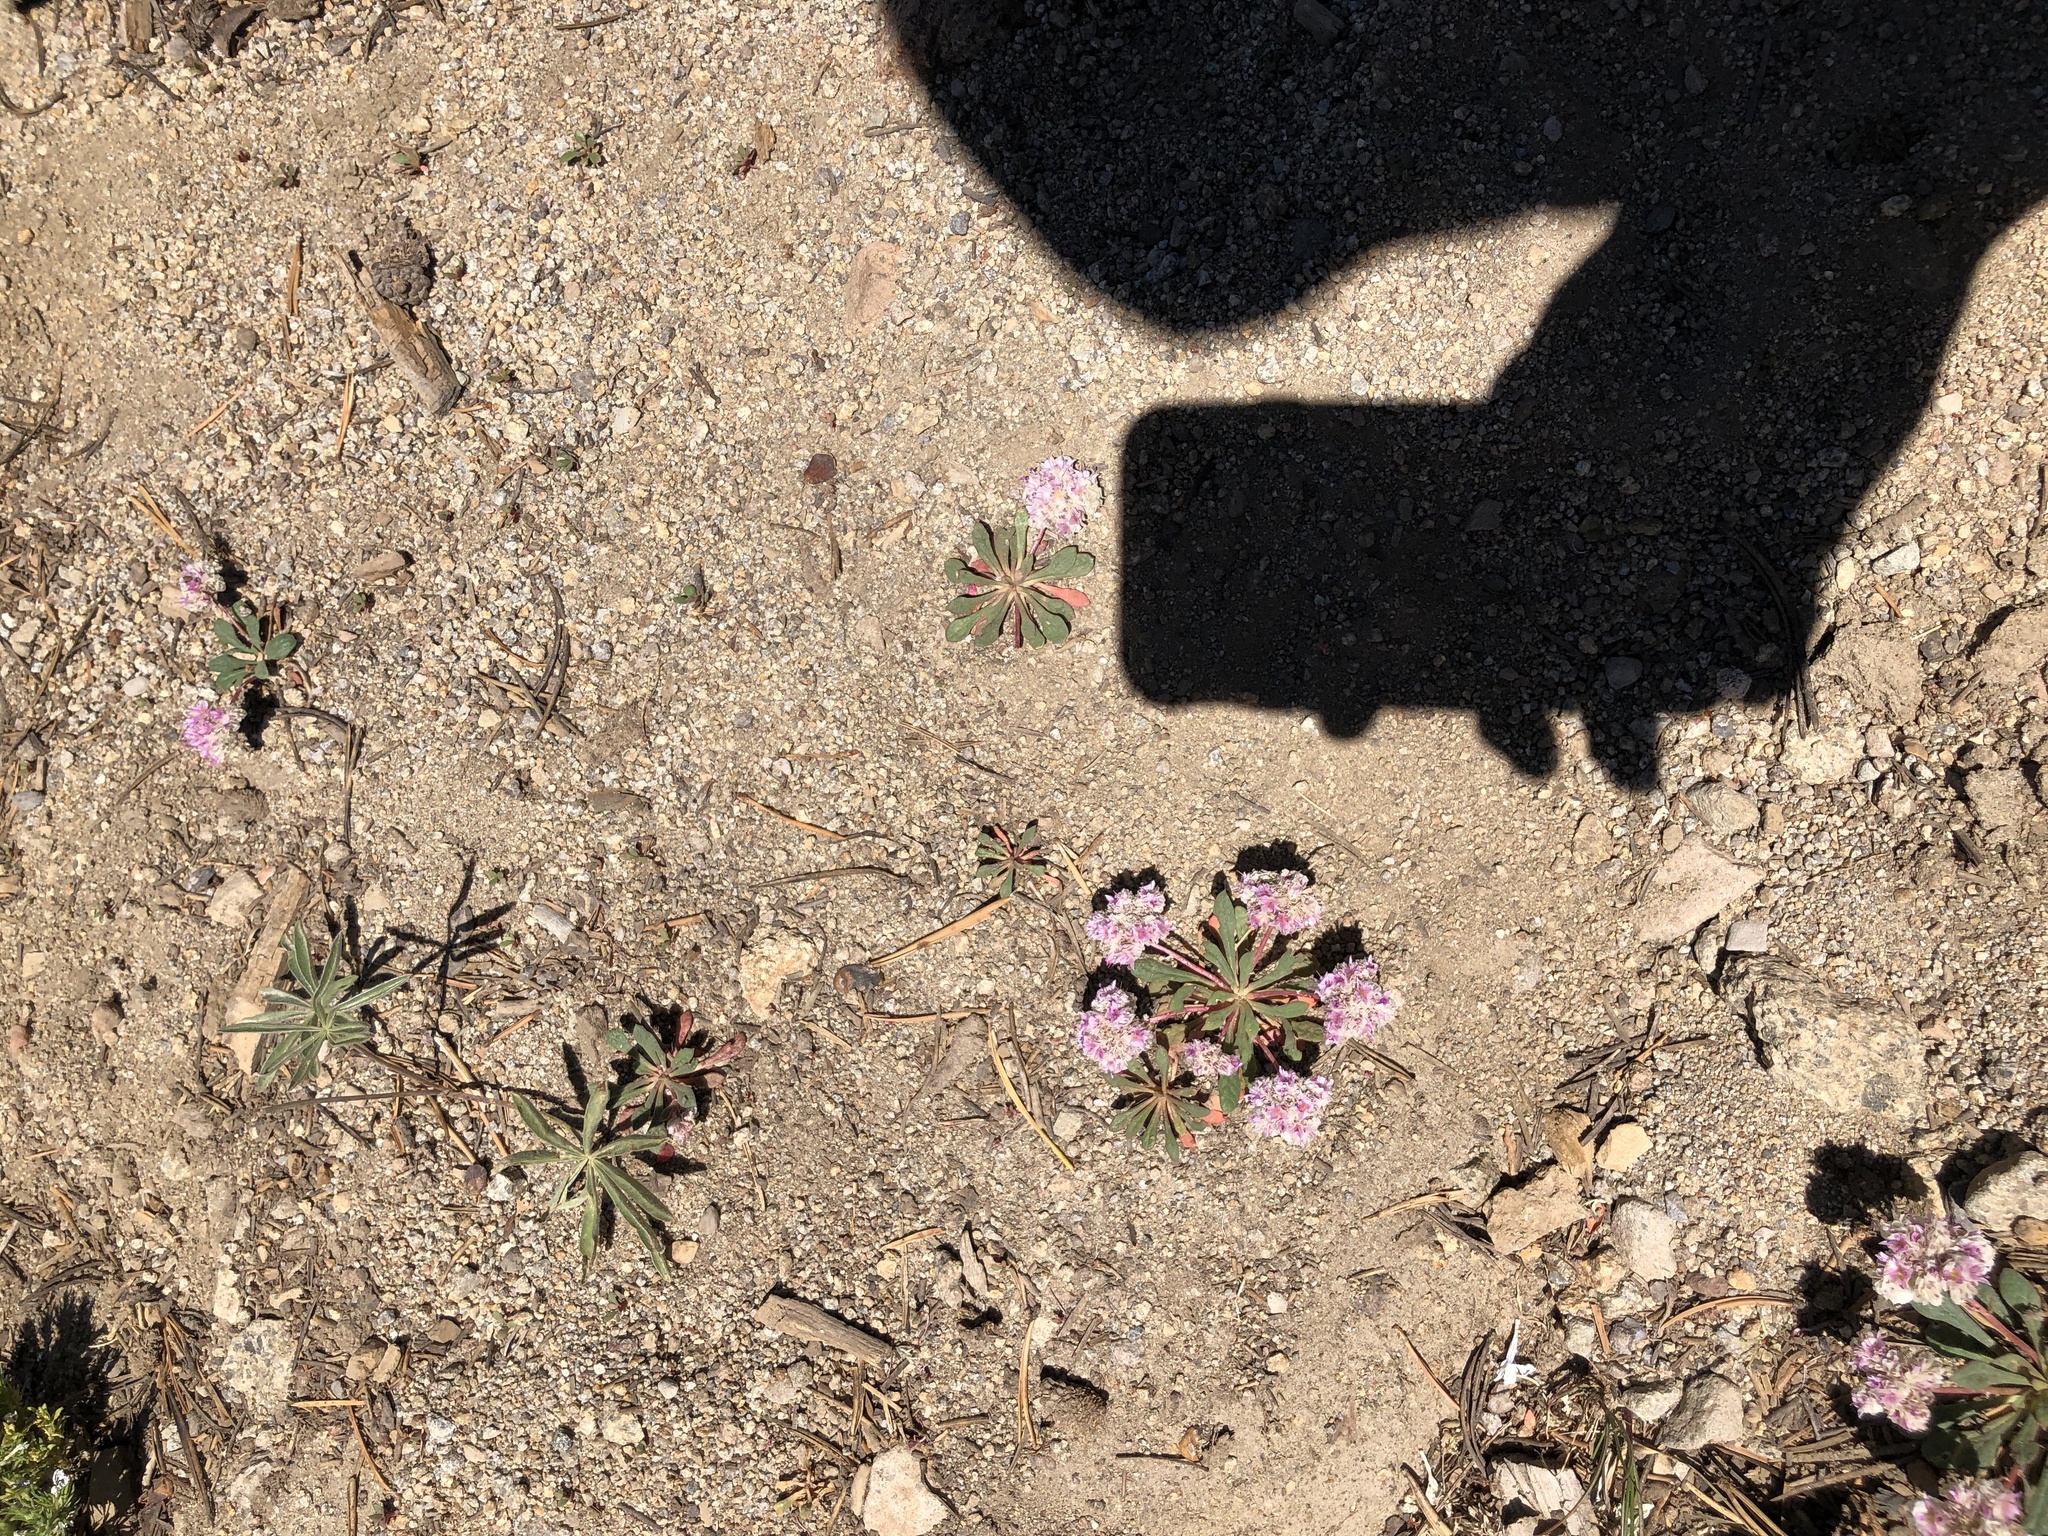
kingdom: Plantae
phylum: Tracheophyta
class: Magnoliopsida
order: Caryophyllales
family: Montiaceae
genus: Calyptridium
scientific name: Calyptridium monospermum
